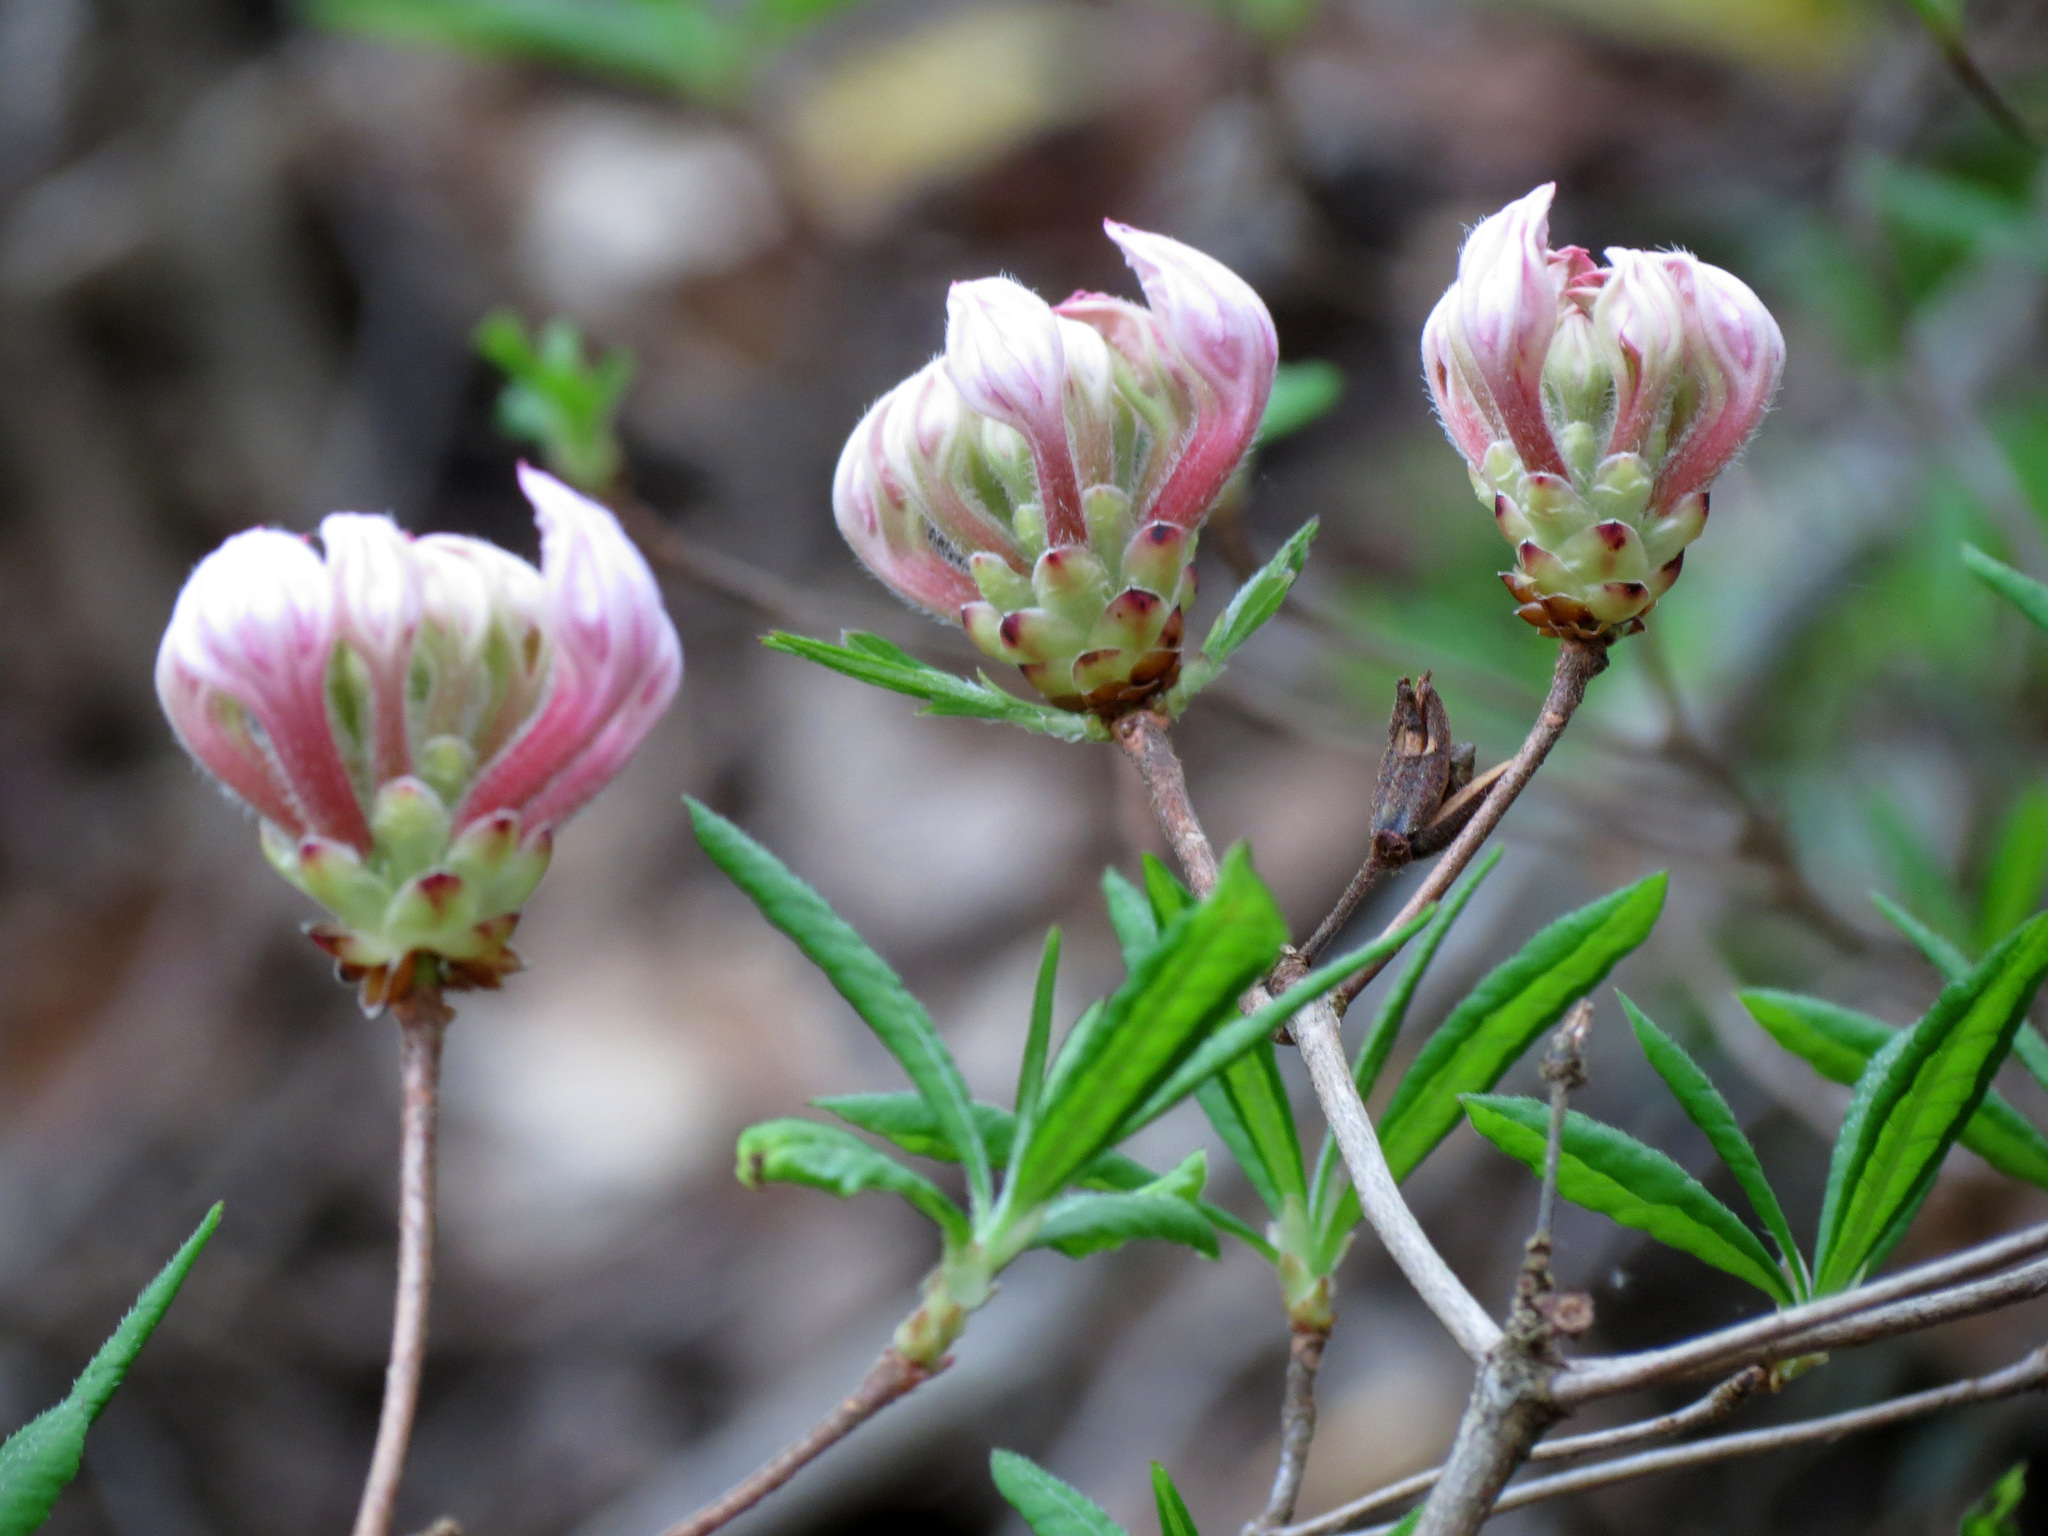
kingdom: Plantae
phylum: Tracheophyta
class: Magnoliopsida
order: Ericales
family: Ericaceae
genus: Rhododendron
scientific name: Rhododendron periclymenoides
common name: Election-pink
